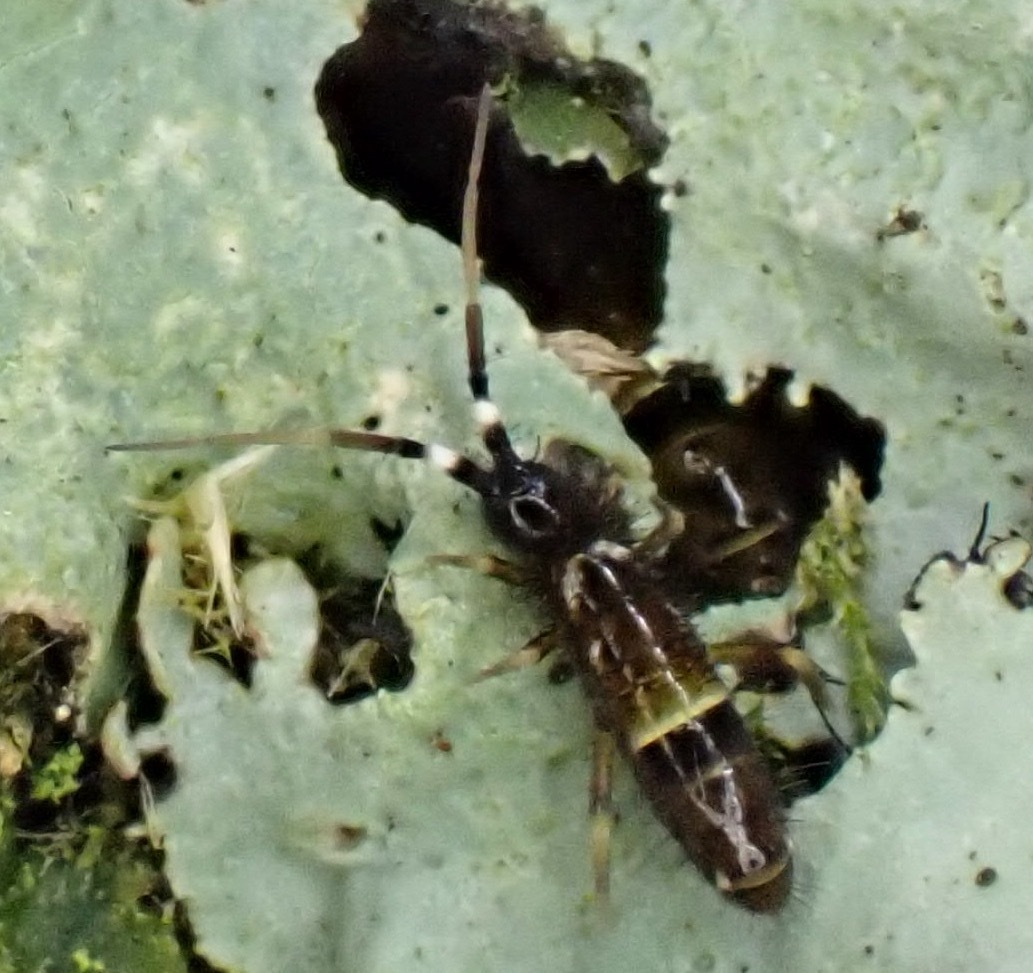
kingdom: Animalia
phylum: Arthropoda
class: Collembola
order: Entomobryomorpha
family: Orchesellidae
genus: Orchesella
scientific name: Orchesella cincta
